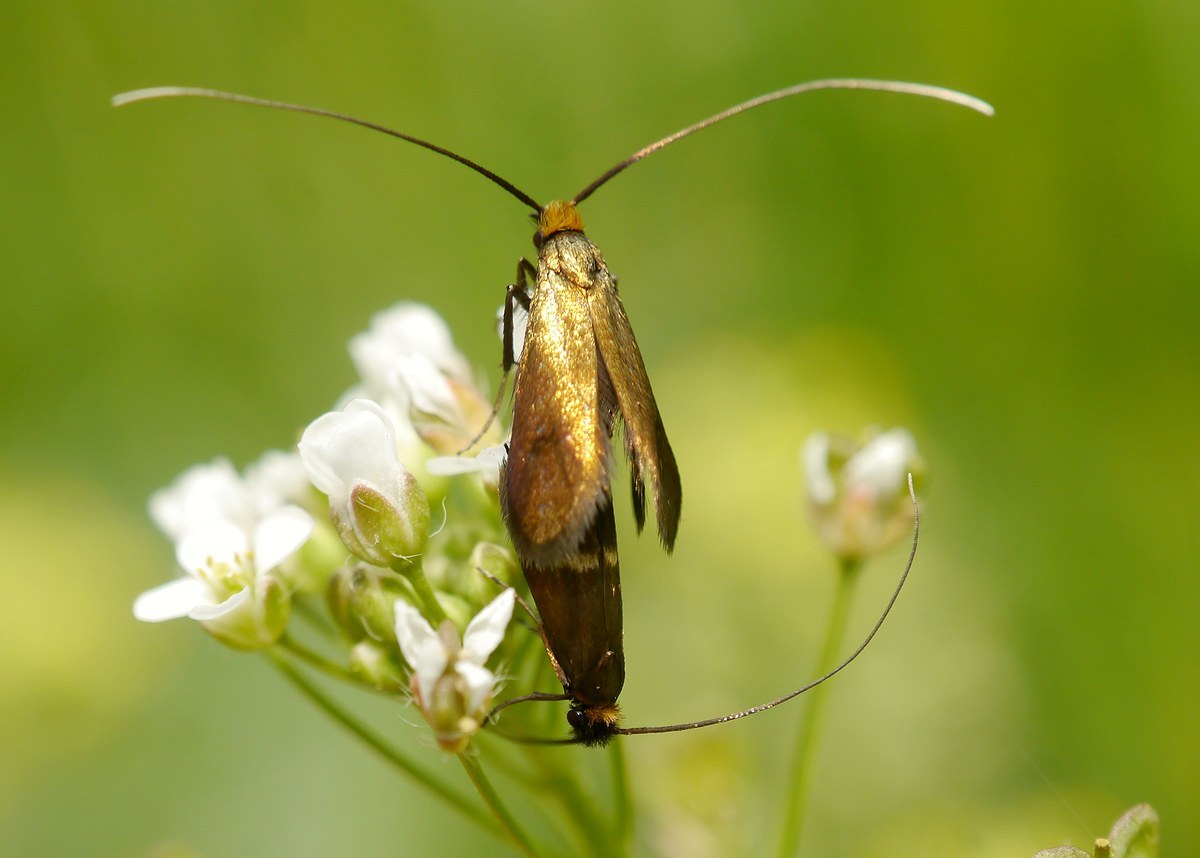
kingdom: Animalia
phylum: Arthropoda
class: Insecta
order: Lepidoptera
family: Adelidae
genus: Cauchas
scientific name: Cauchas rufimitrella
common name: Meadow long-horn
